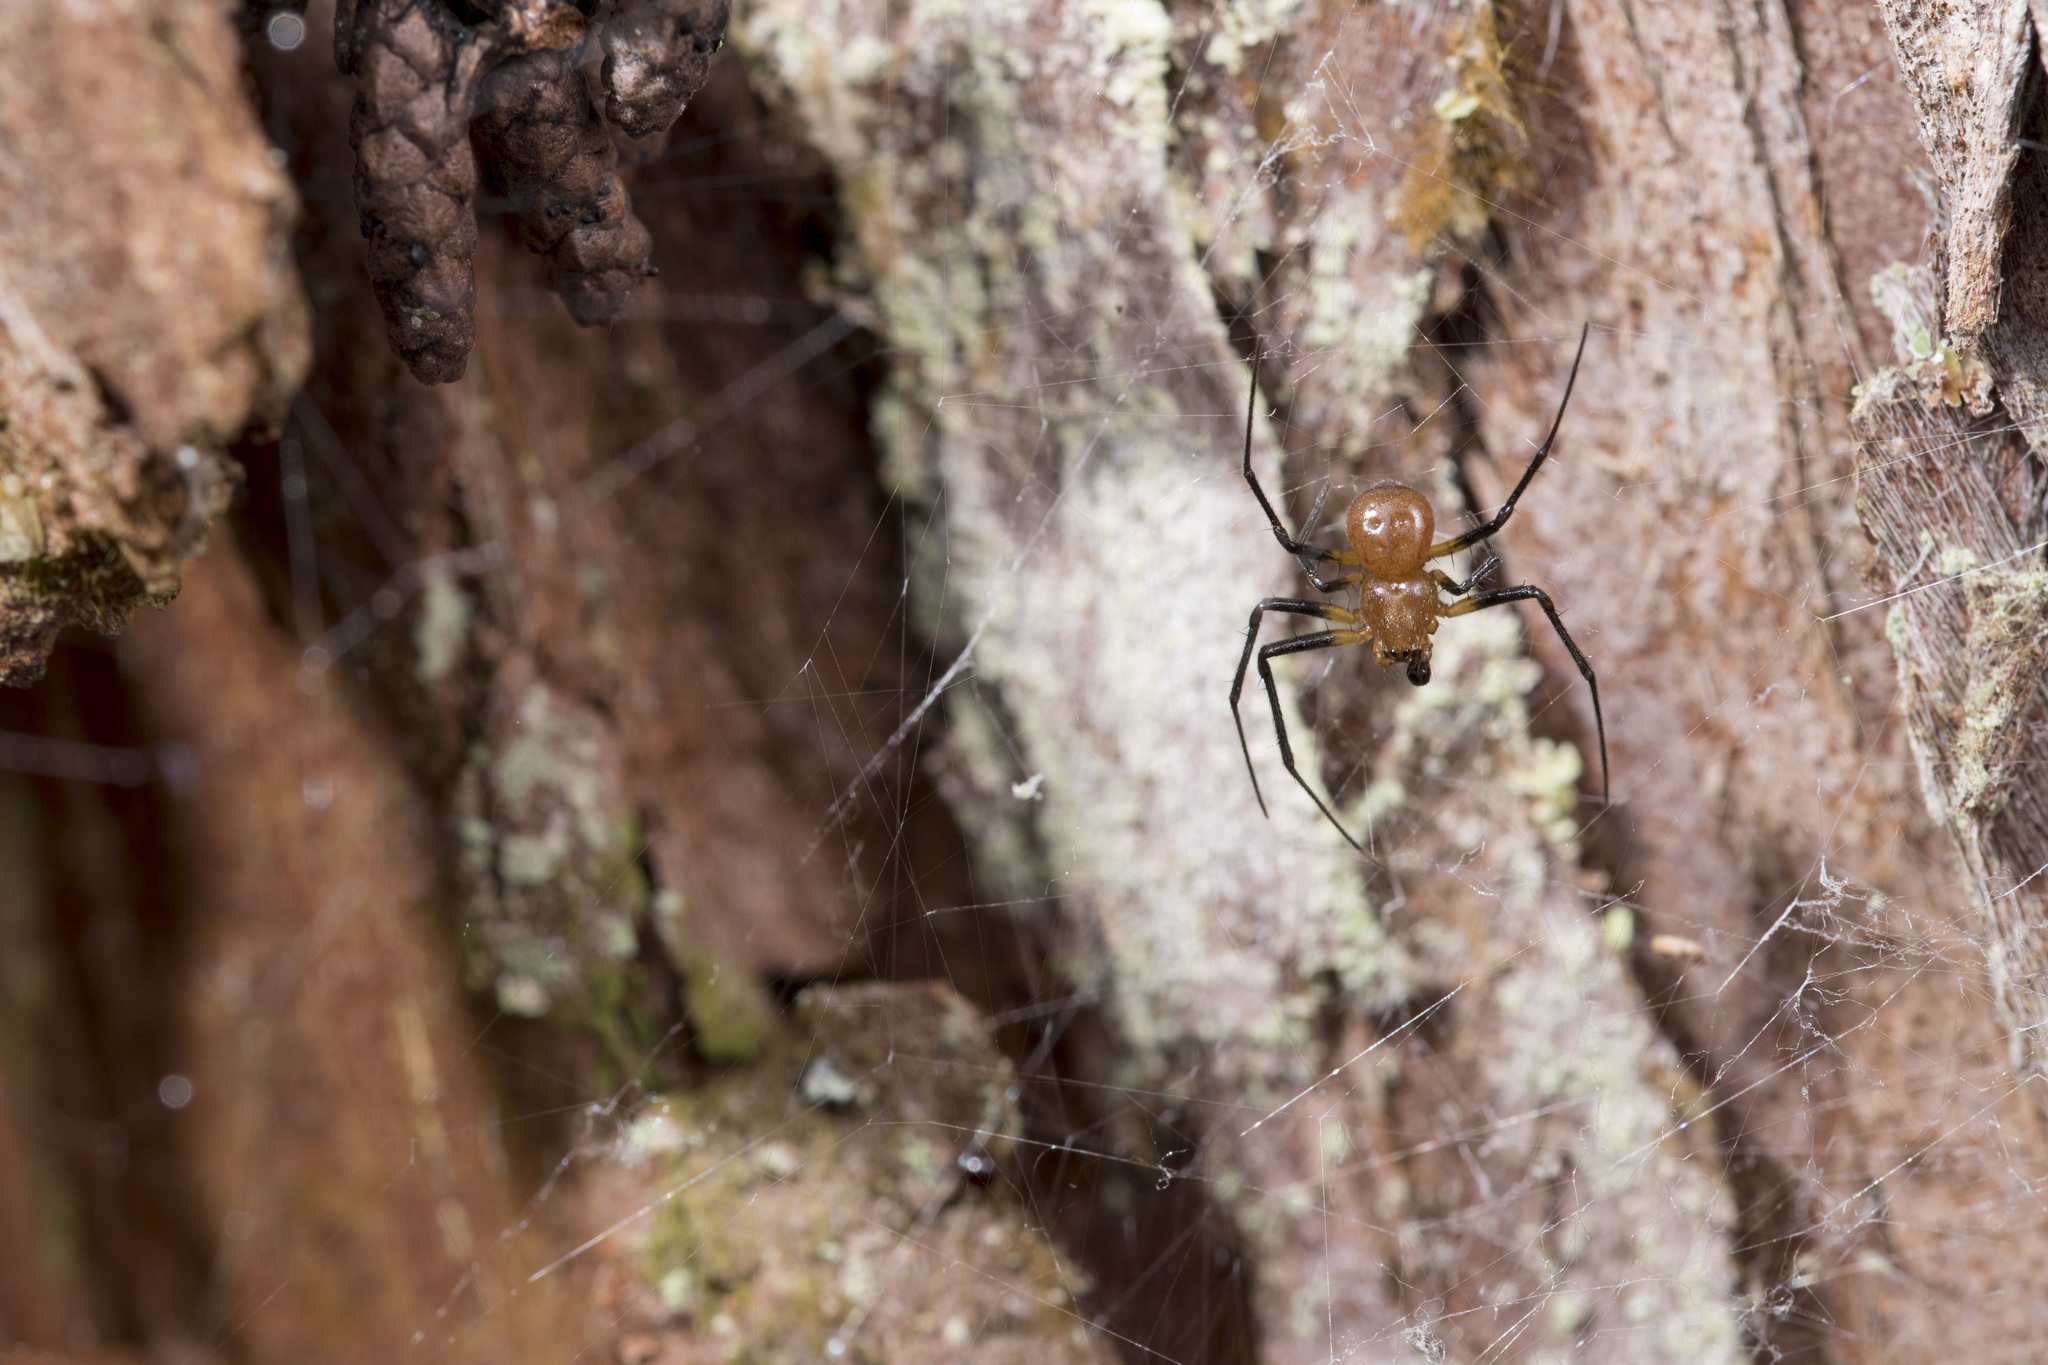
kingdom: Animalia
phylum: Arthropoda
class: Arachnida
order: Araneae
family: Araneidae
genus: Herennia
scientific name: Herennia multipuncta
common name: Spotted coin spider
